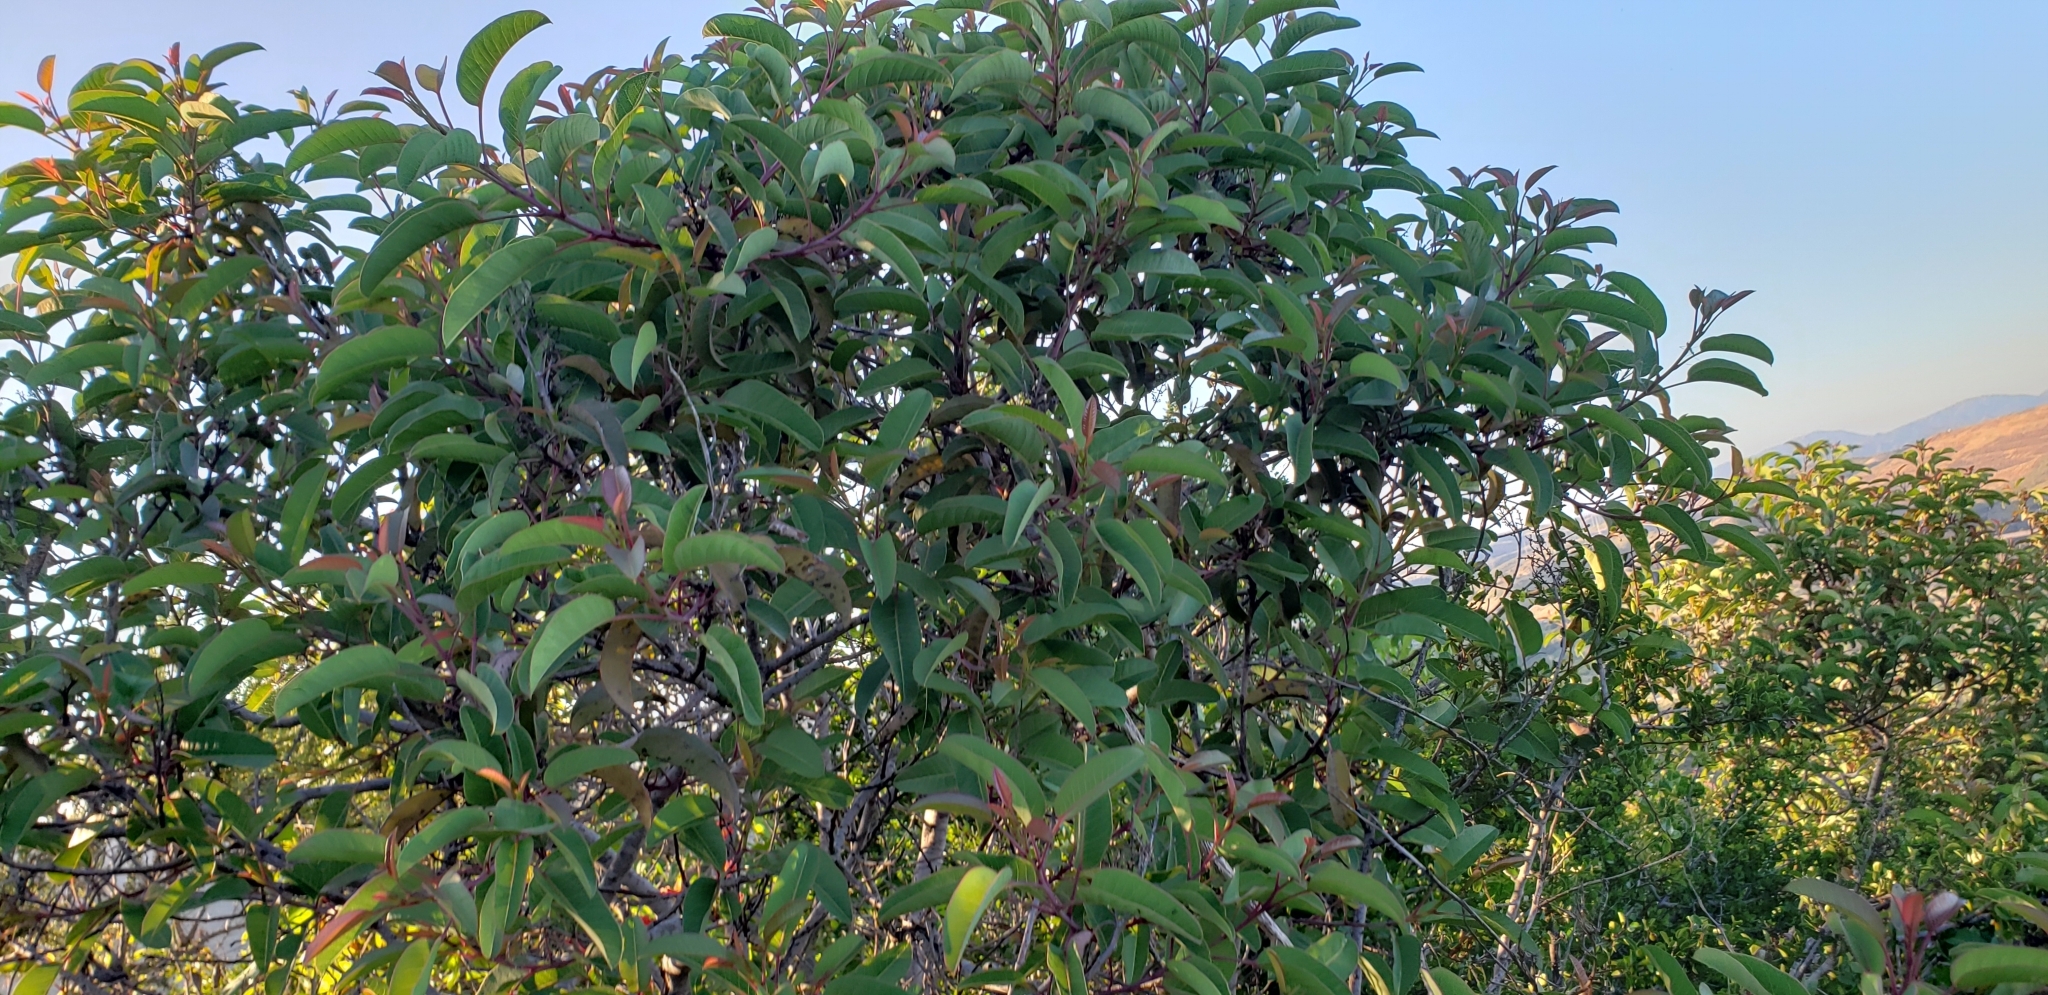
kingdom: Plantae
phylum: Tracheophyta
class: Magnoliopsida
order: Sapindales
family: Anacardiaceae
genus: Malosma
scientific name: Malosma laurina
